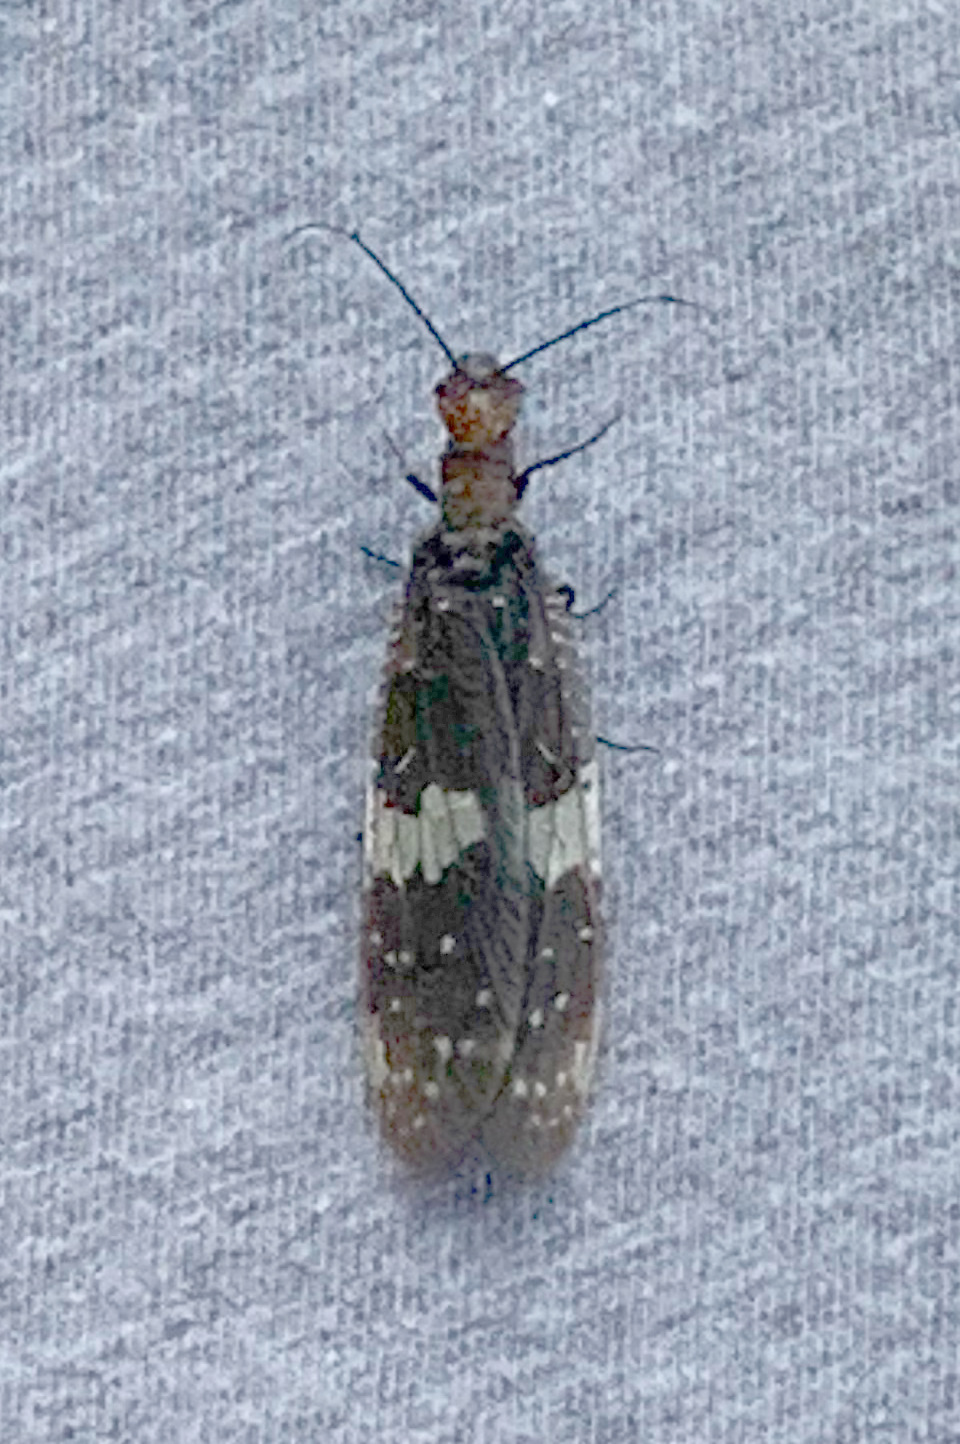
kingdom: Animalia
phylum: Arthropoda
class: Insecta
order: Megaloptera
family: Corydalidae
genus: Nigronia
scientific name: Nigronia serricornis
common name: Serrate dark fishfly
